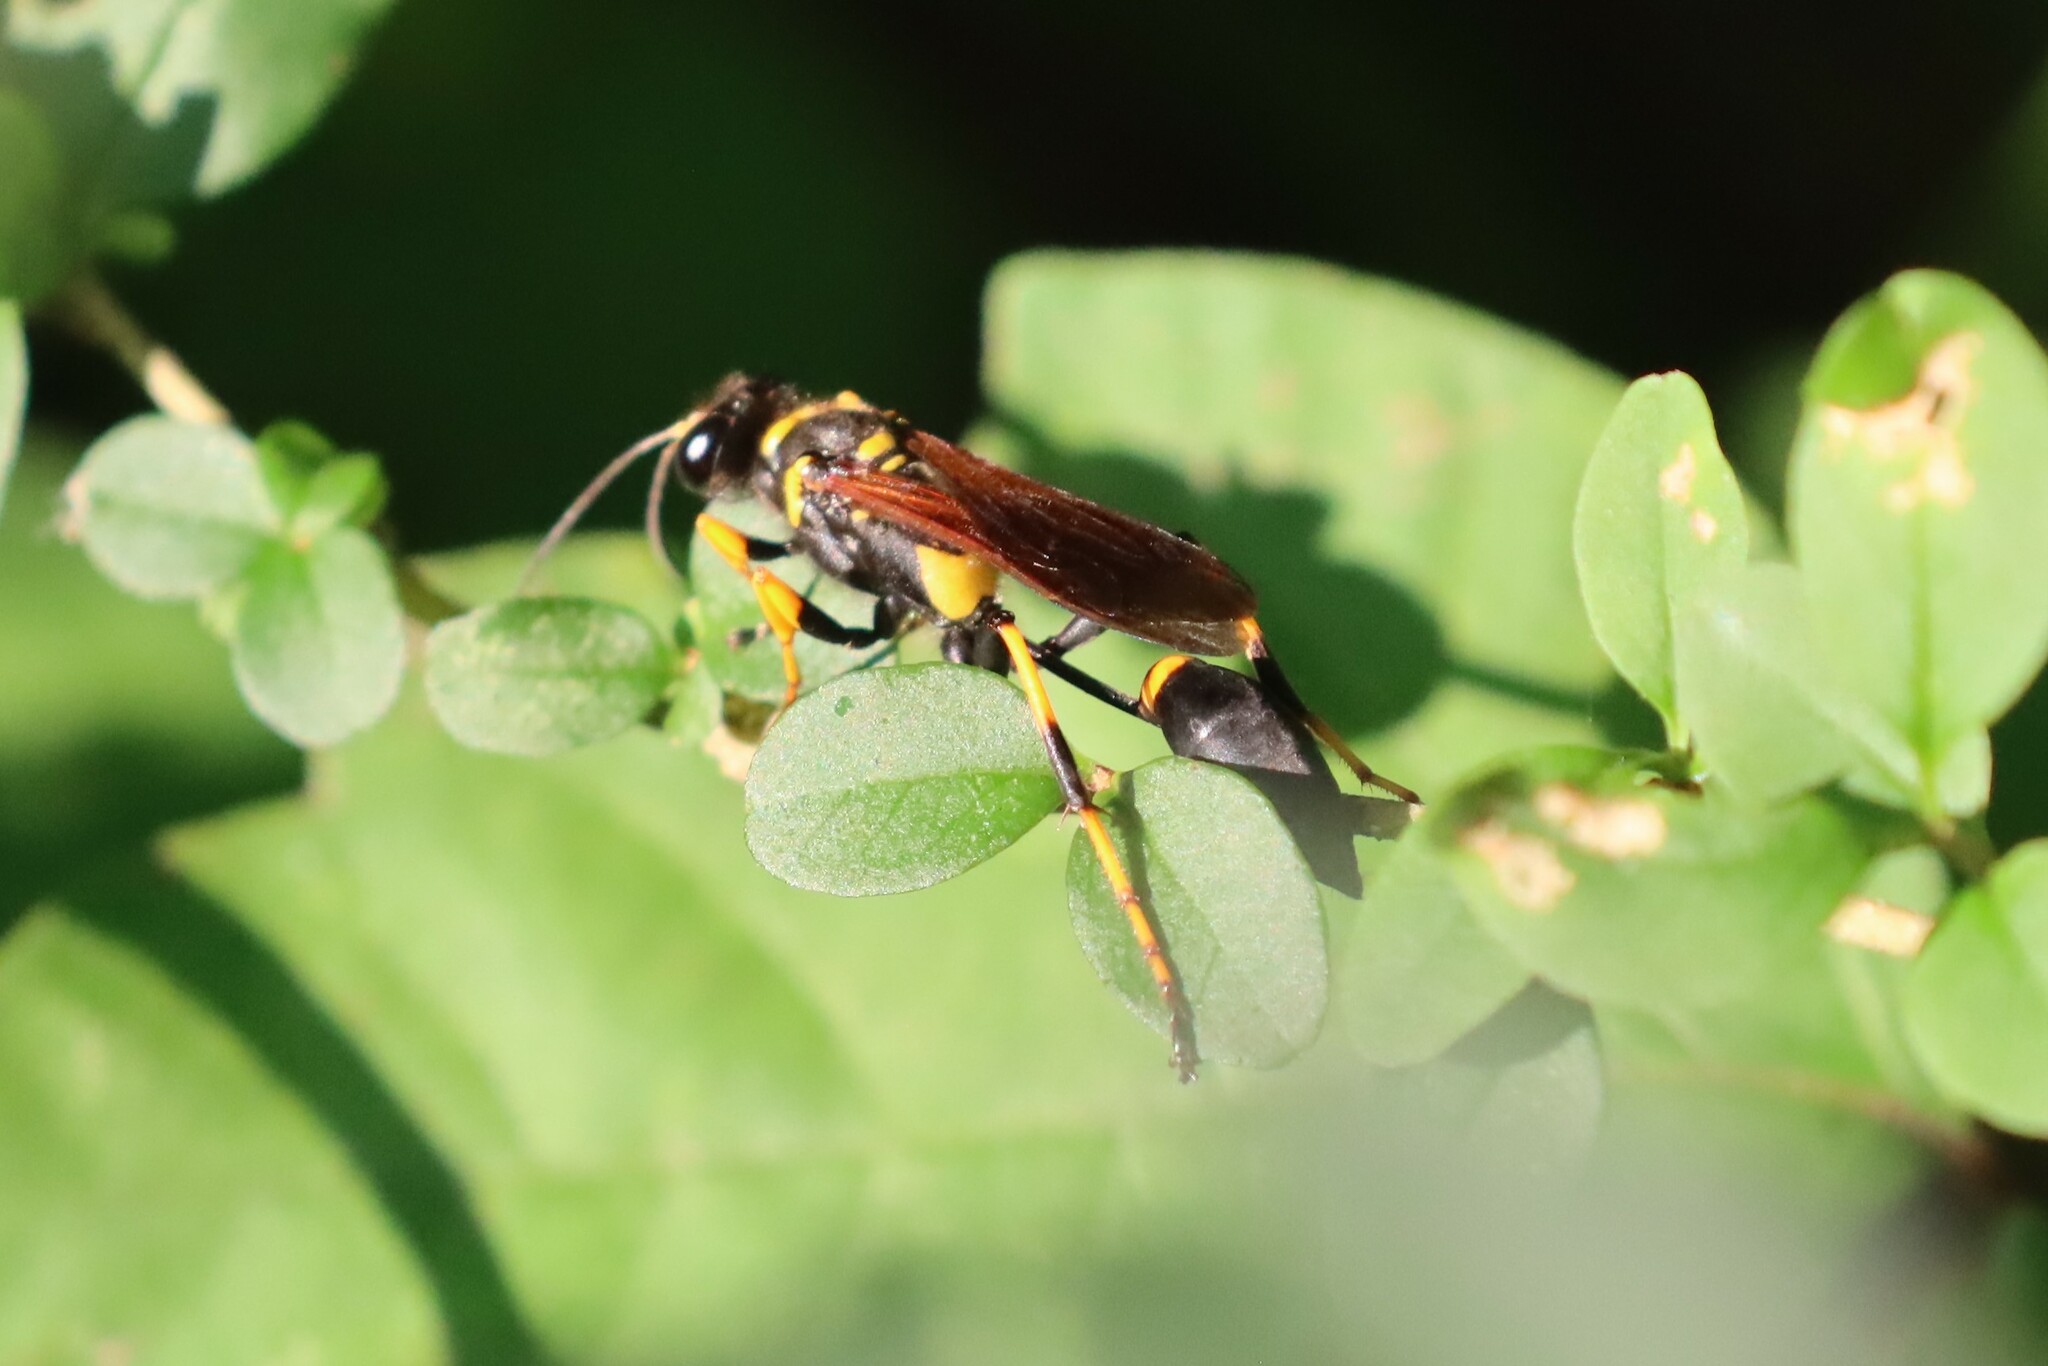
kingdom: Animalia
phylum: Arthropoda
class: Insecta
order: Hymenoptera
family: Sphecidae
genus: Sceliphron
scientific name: Sceliphron caementarium
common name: Mud dauber
